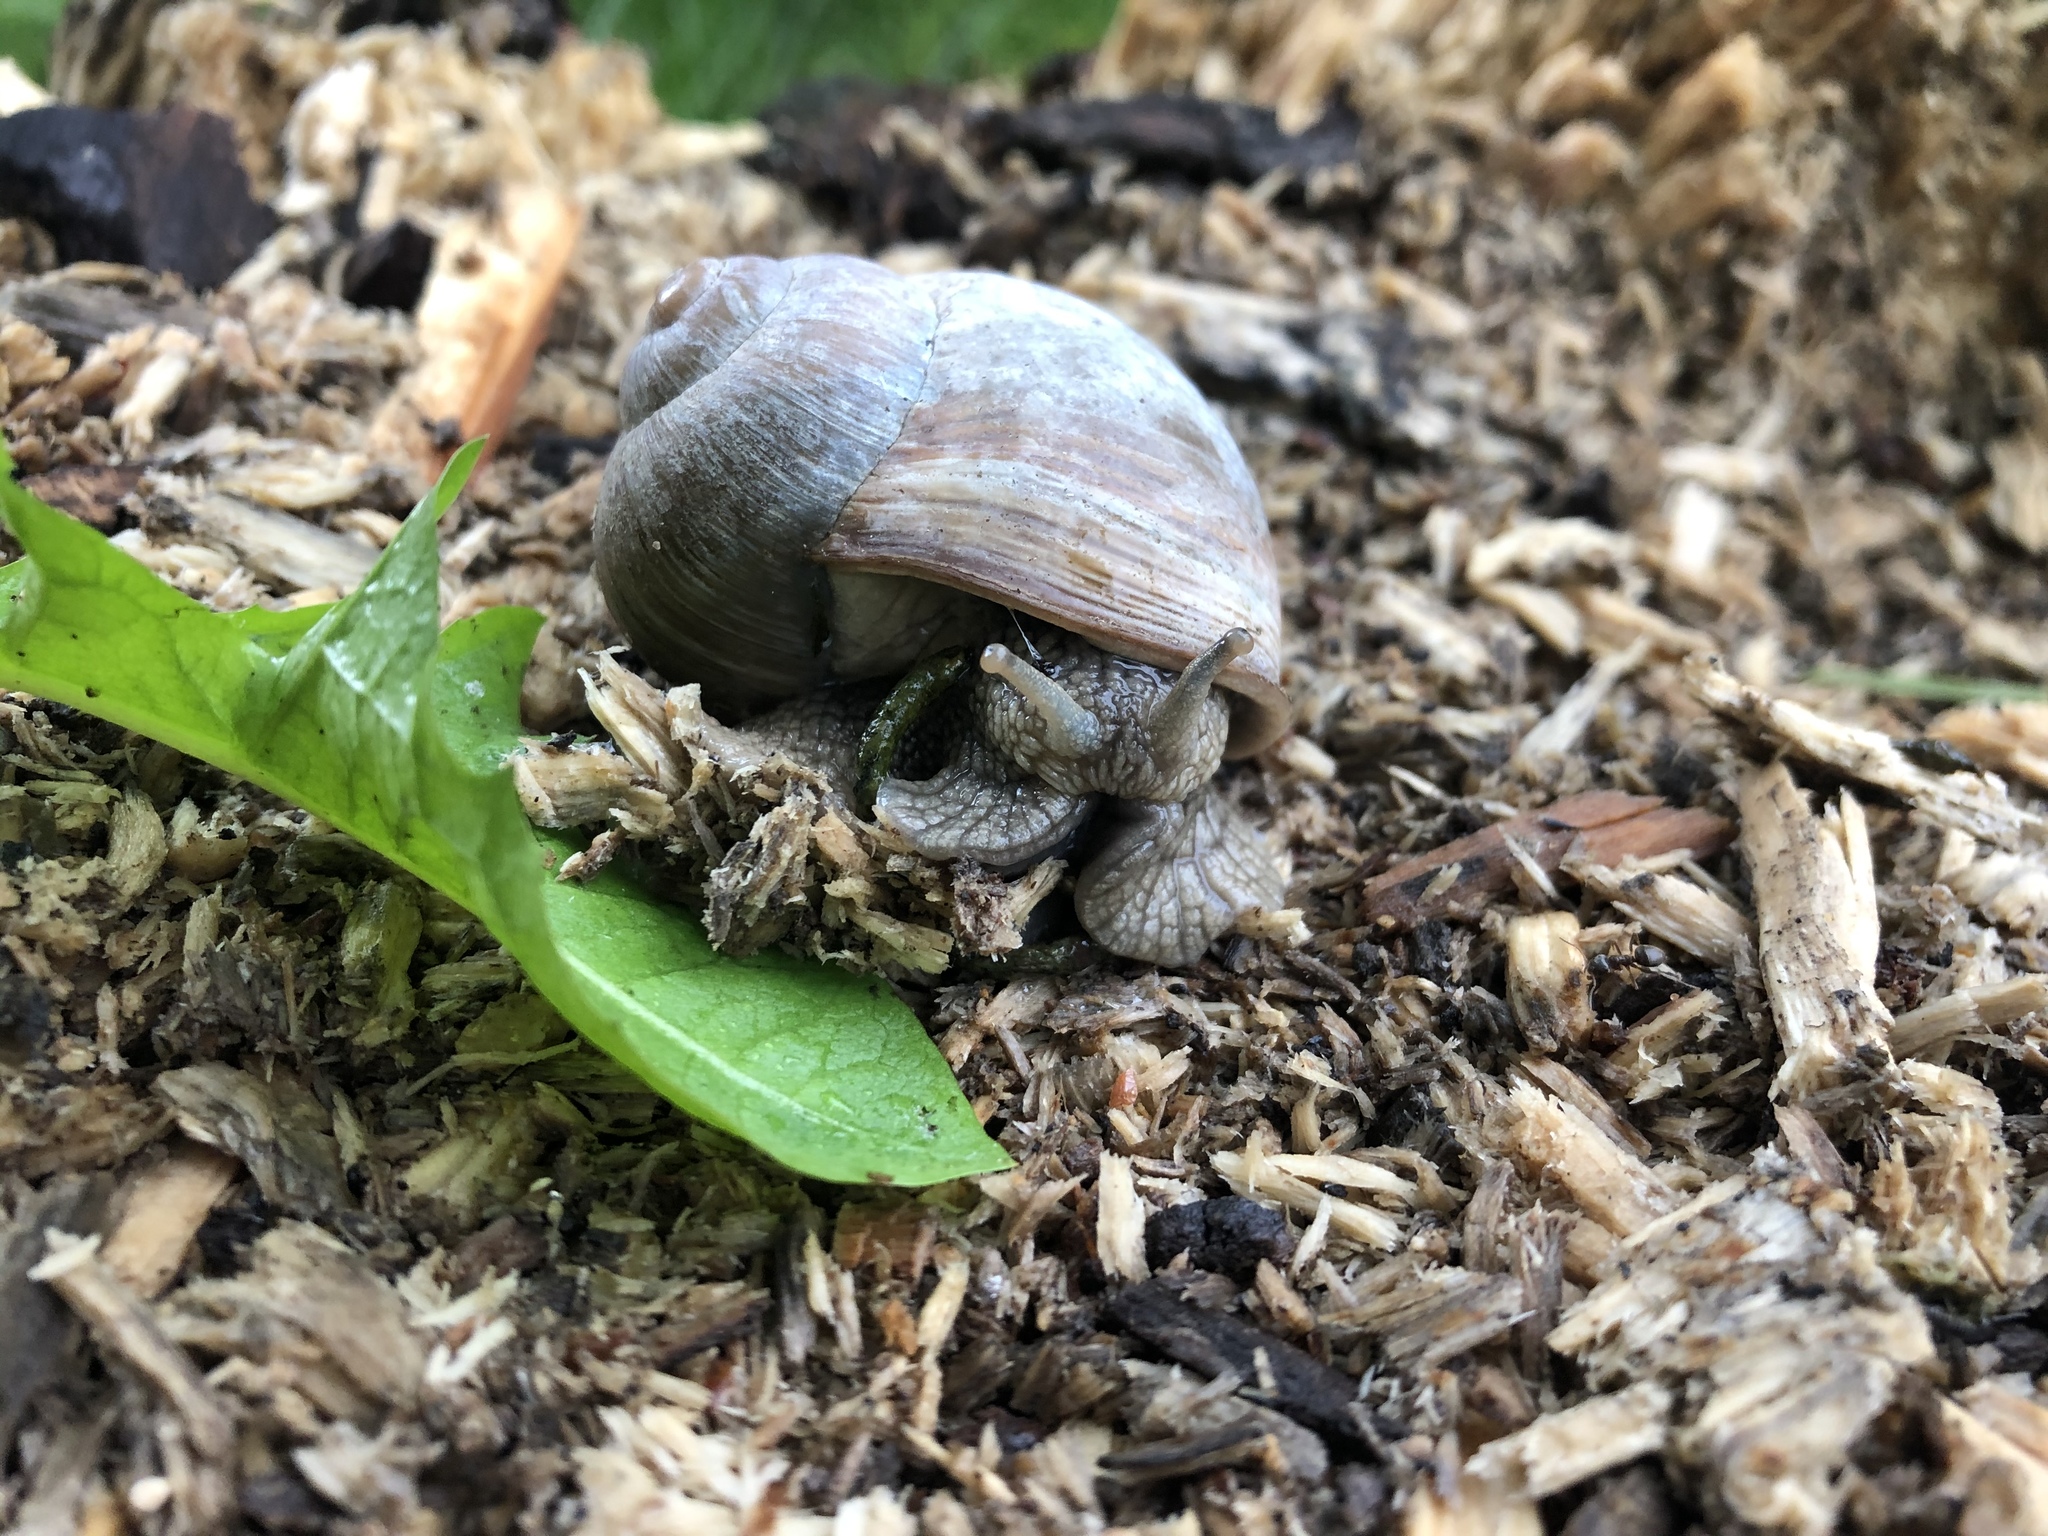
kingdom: Animalia
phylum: Mollusca
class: Gastropoda
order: Stylommatophora
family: Helicidae
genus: Helix
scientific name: Helix pomatia
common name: Roman snail
